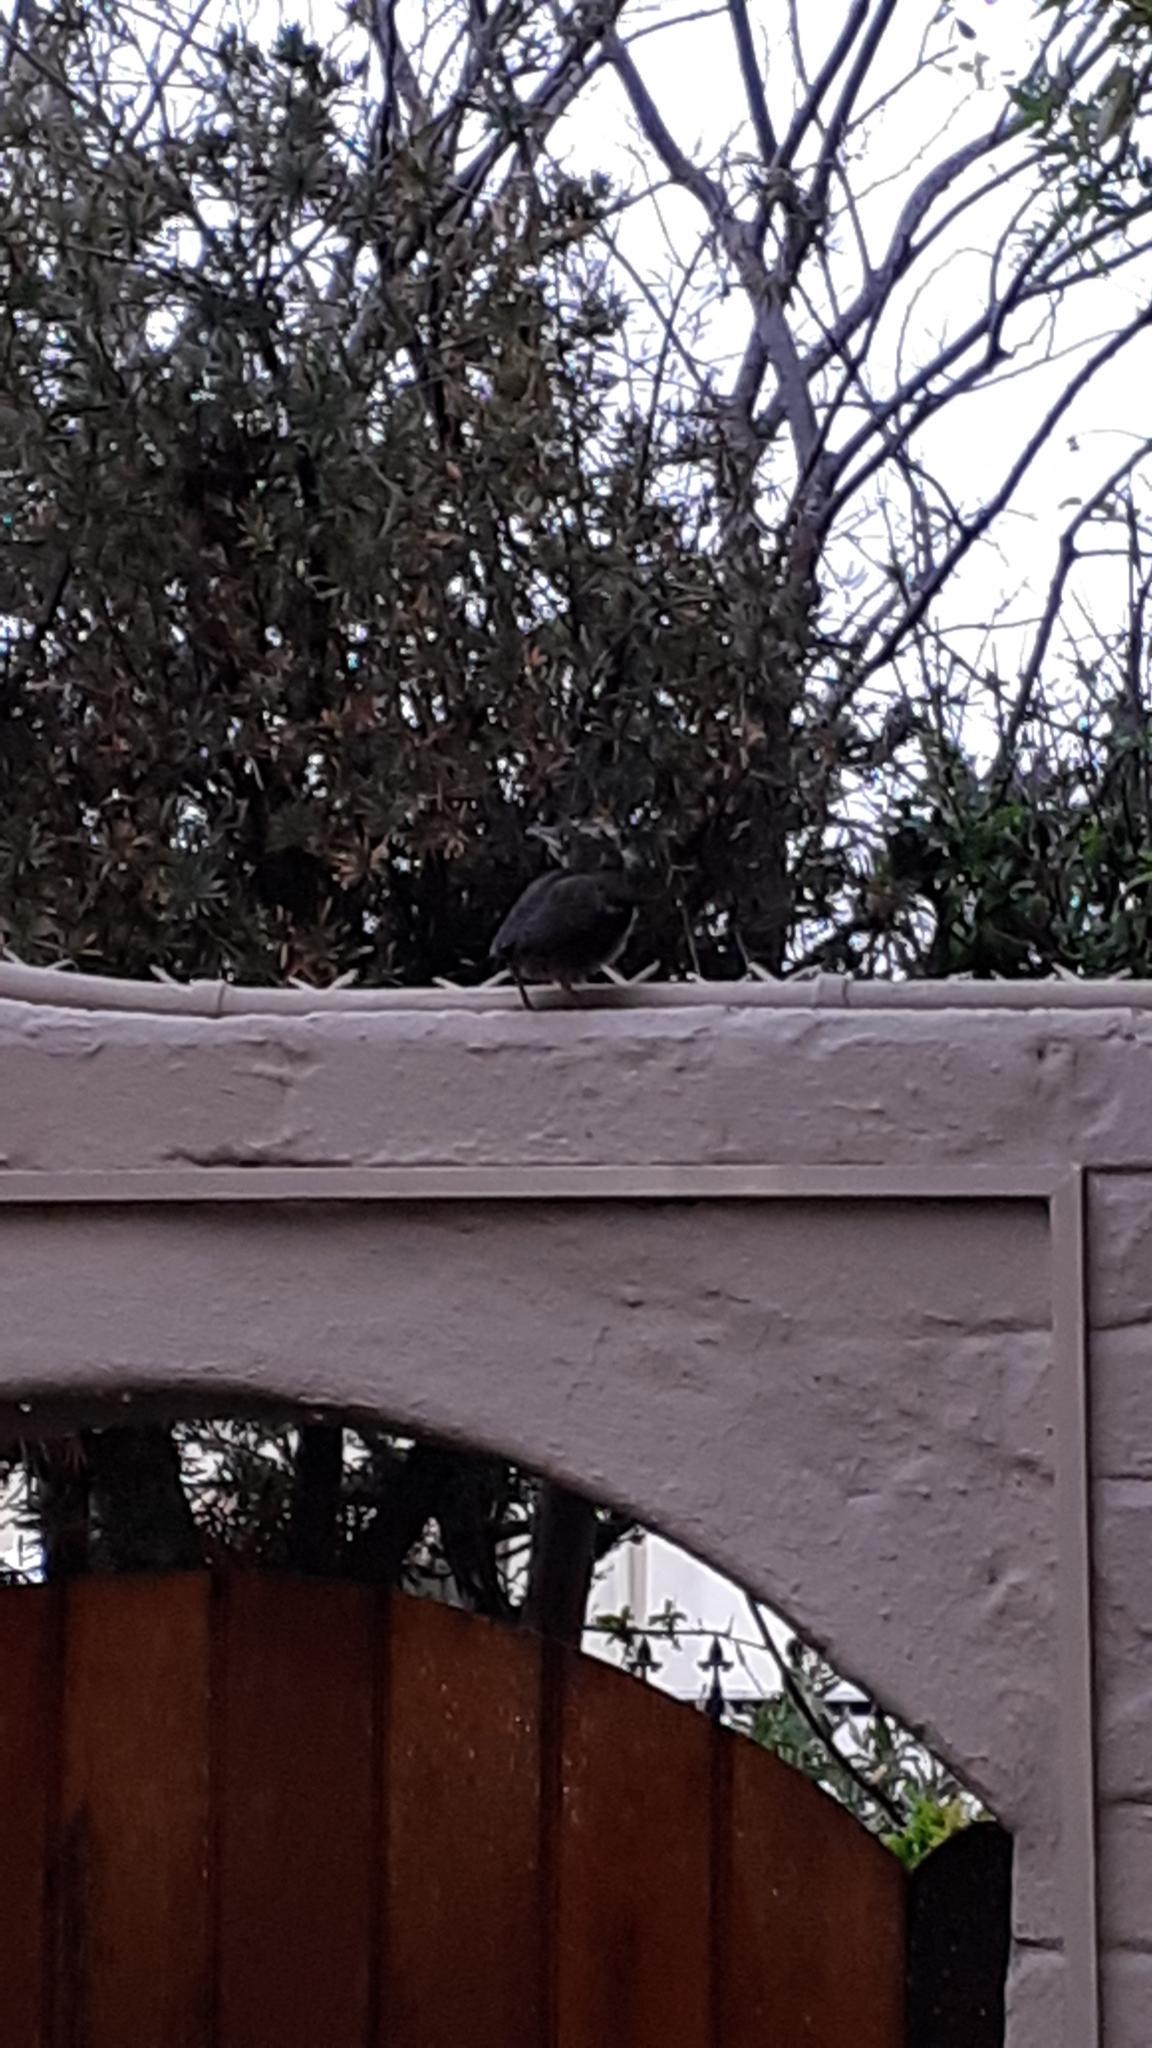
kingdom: Animalia
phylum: Chordata
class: Aves
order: Passeriformes
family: Turdidae
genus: Turdus
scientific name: Turdus olivaceus
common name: Olive thrush
